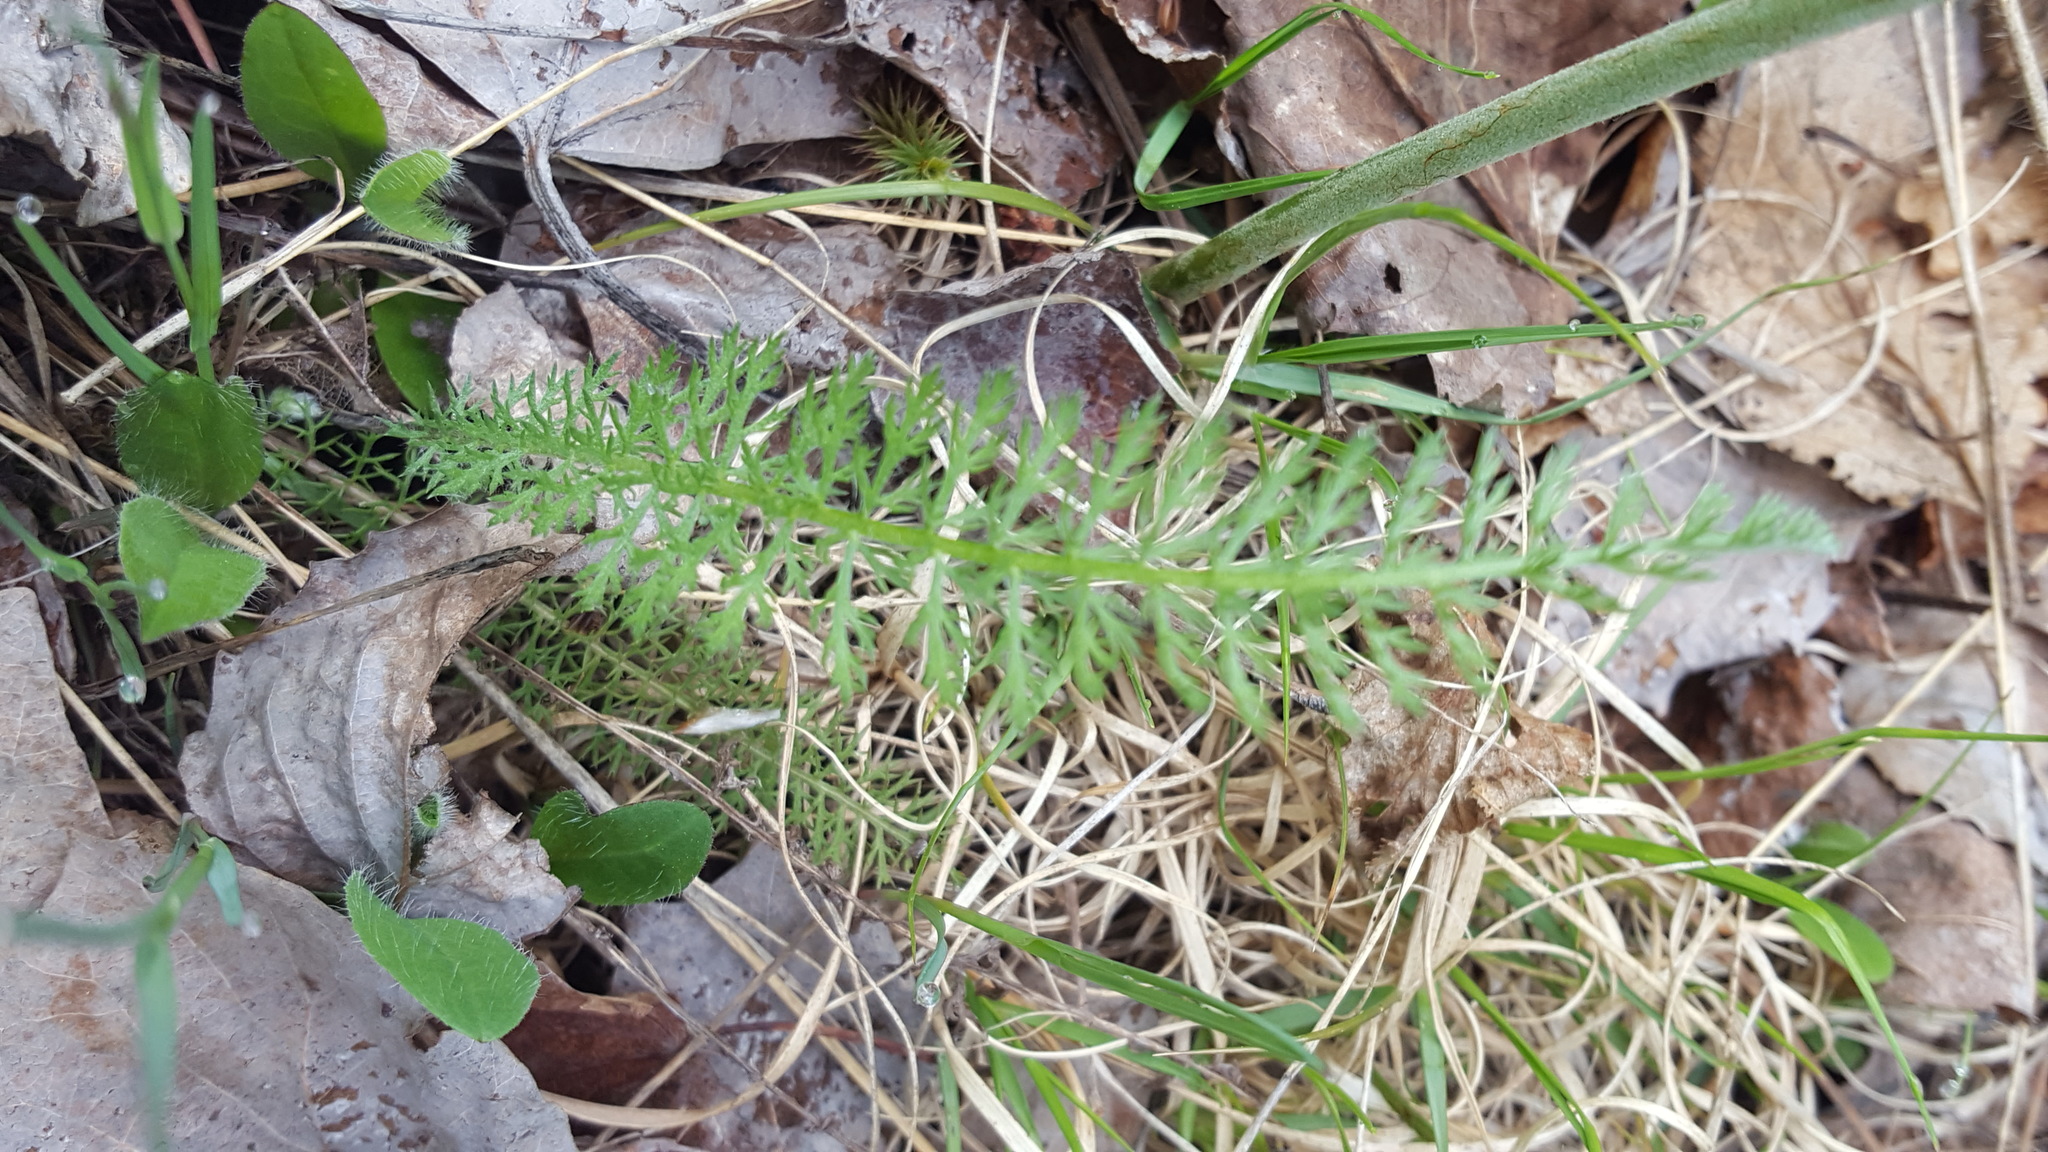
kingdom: Plantae
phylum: Tracheophyta
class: Magnoliopsida
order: Asterales
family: Asteraceae
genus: Achillea
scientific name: Achillea millefolium
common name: Yarrow
